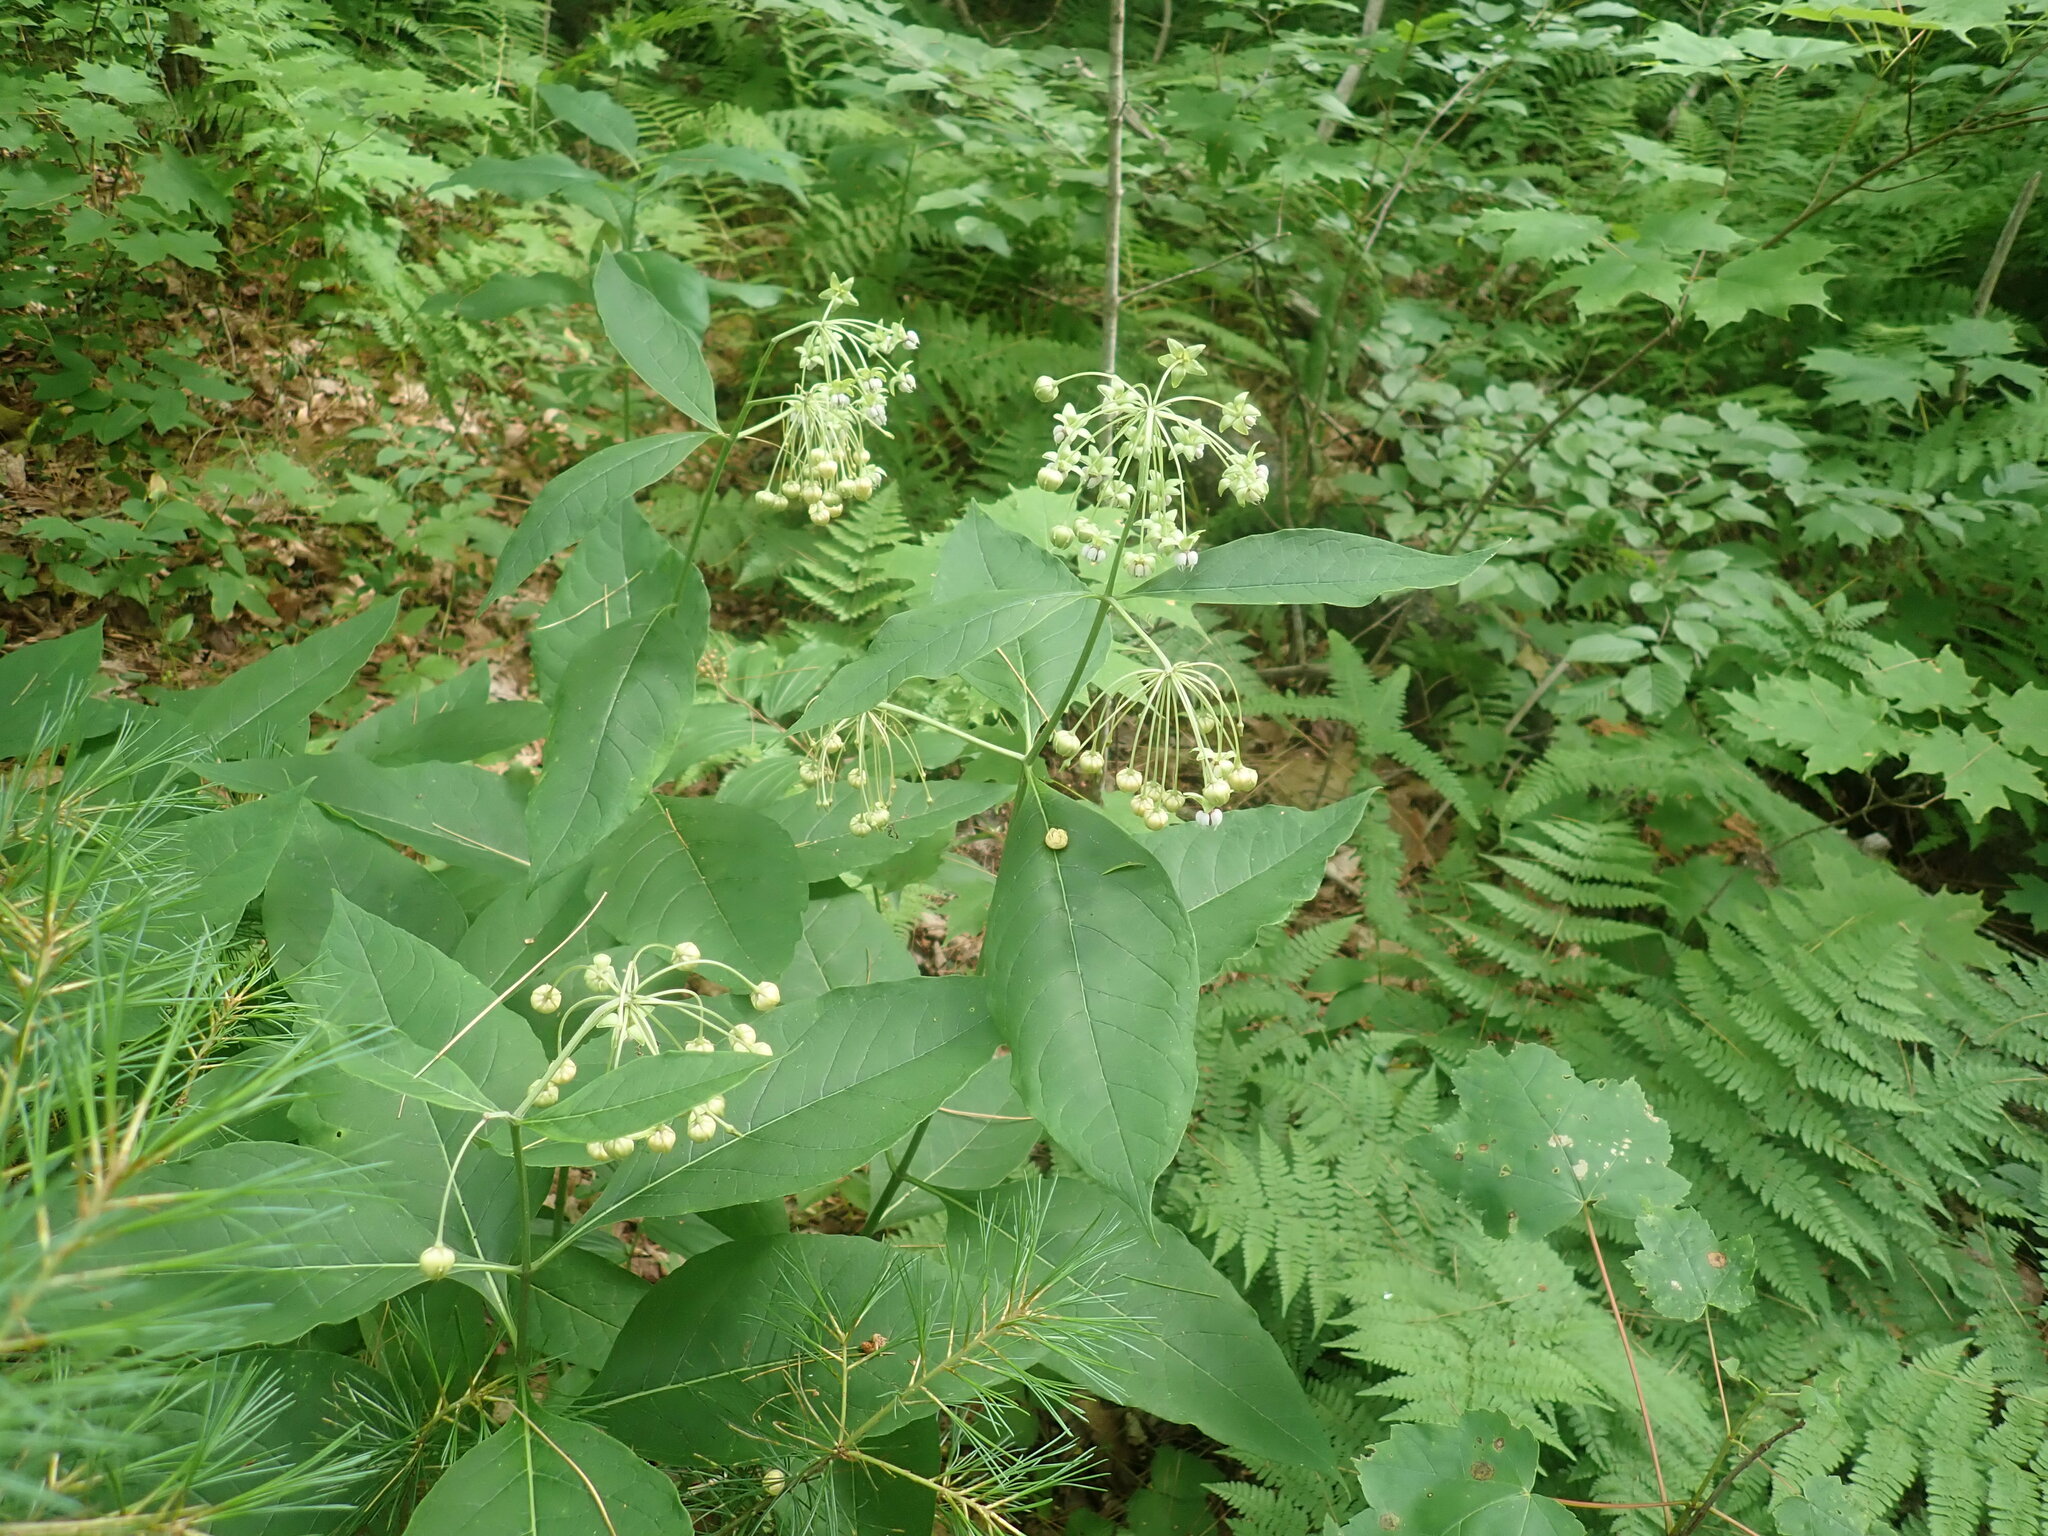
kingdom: Plantae
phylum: Tracheophyta
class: Magnoliopsida
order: Gentianales
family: Apocynaceae
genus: Asclepias
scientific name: Asclepias exaltata
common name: Poke milkweed
